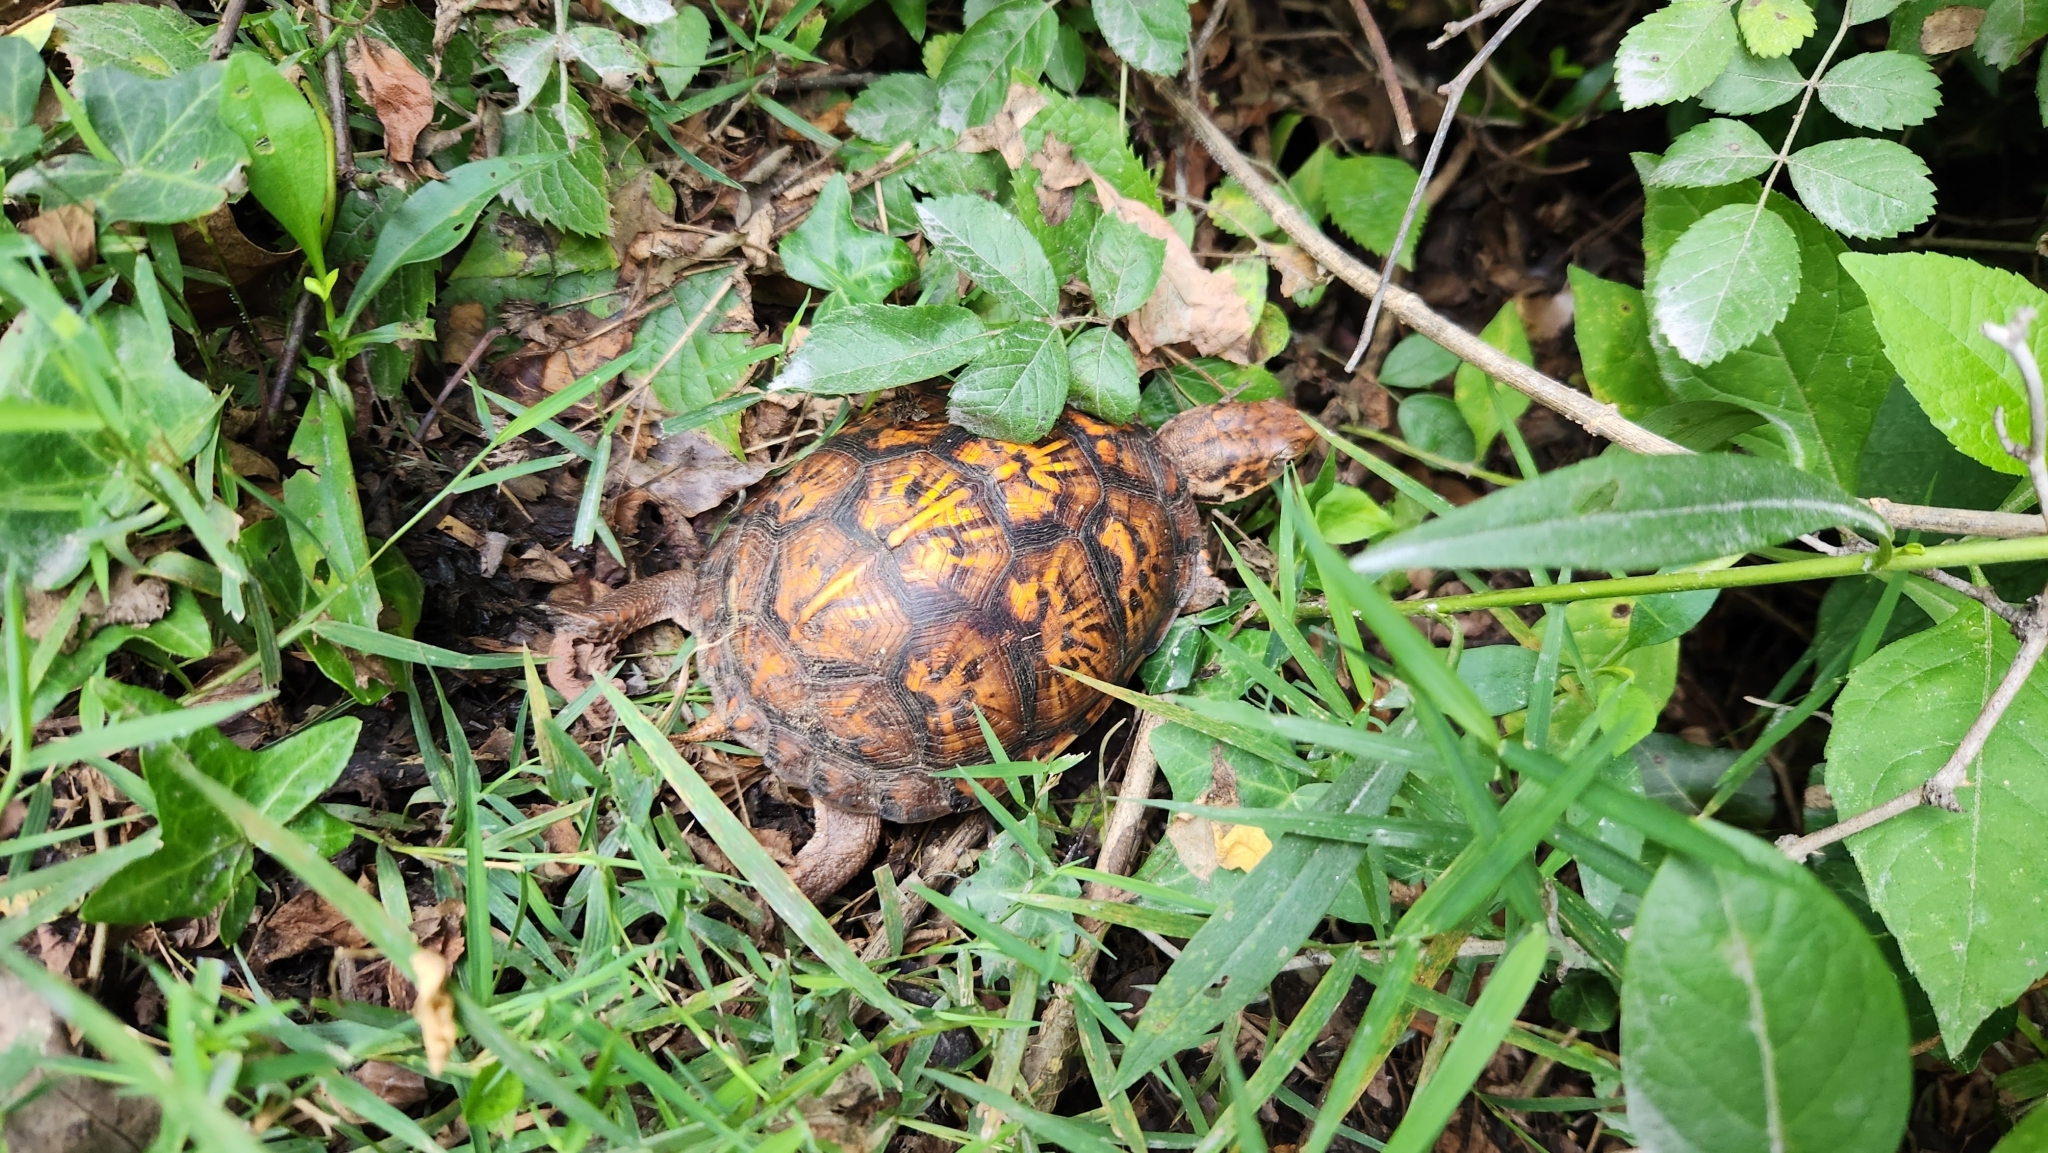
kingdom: Animalia
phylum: Chordata
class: Testudines
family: Emydidae
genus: Terrapene
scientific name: Terrapene carolina
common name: Common box turtle
